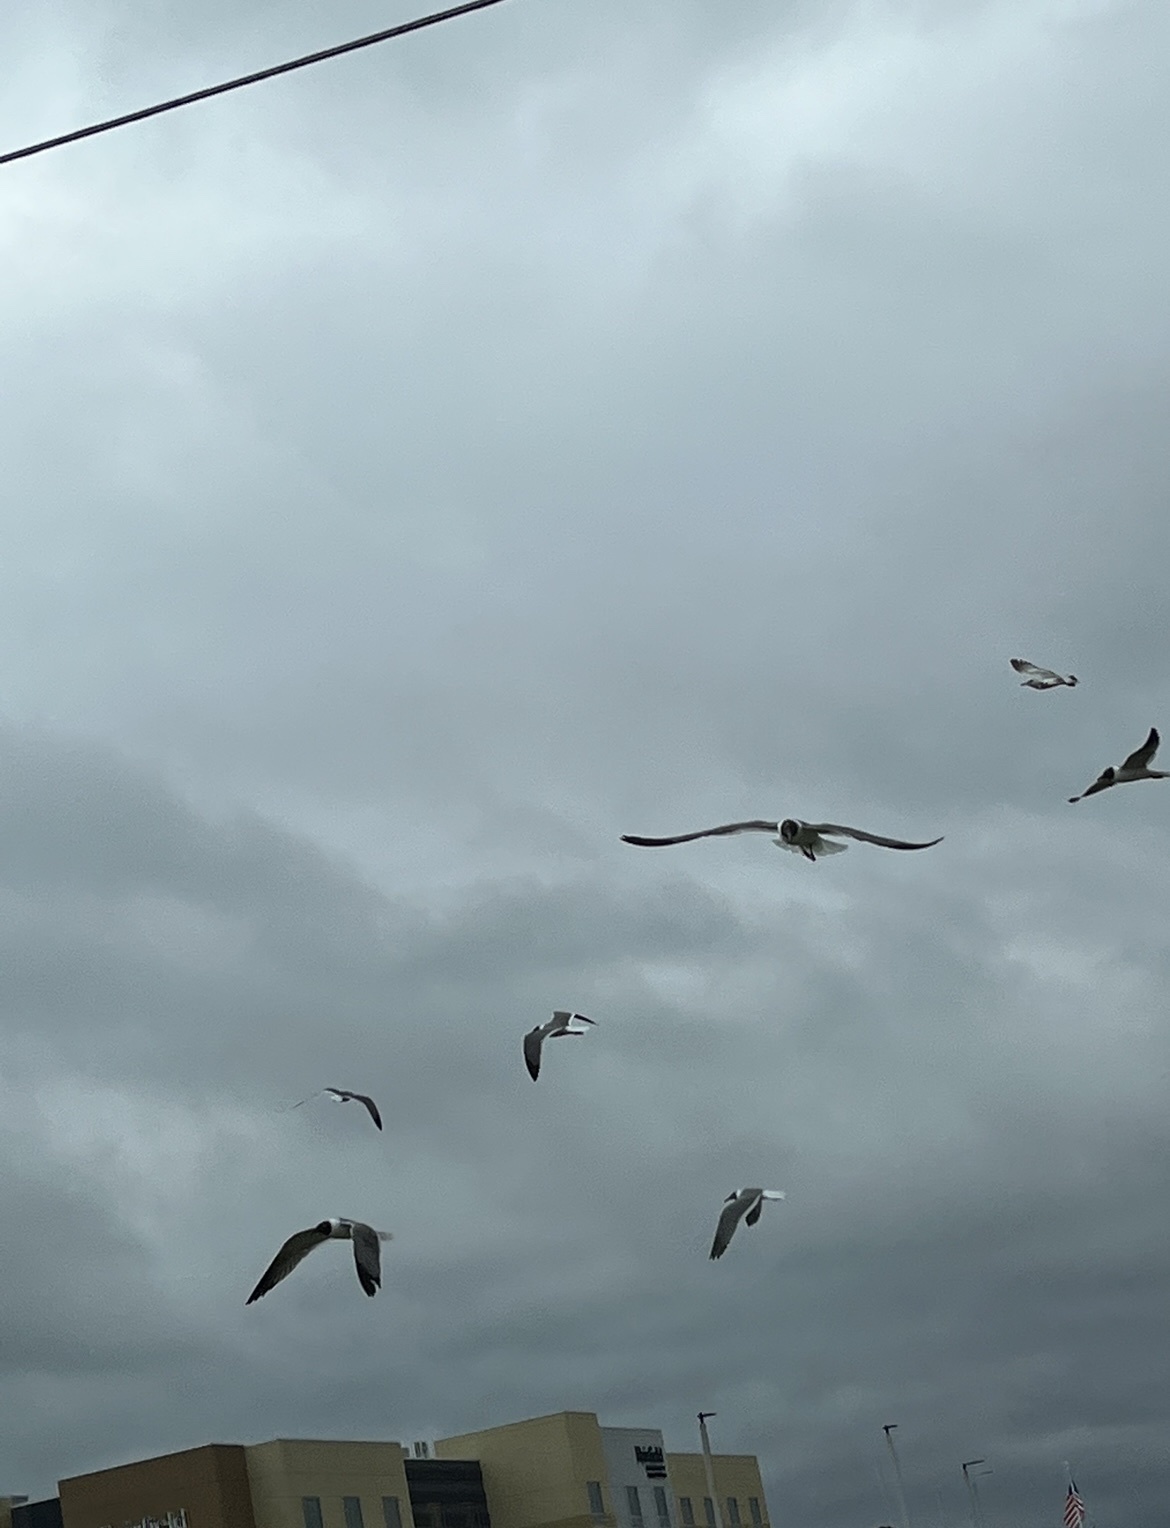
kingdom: Animalia
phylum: Chordata
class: Aves
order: Charadriiformes
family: Laridae
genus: Leucophaeus
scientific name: Leucophaeus atricilla
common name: Laughing gull
